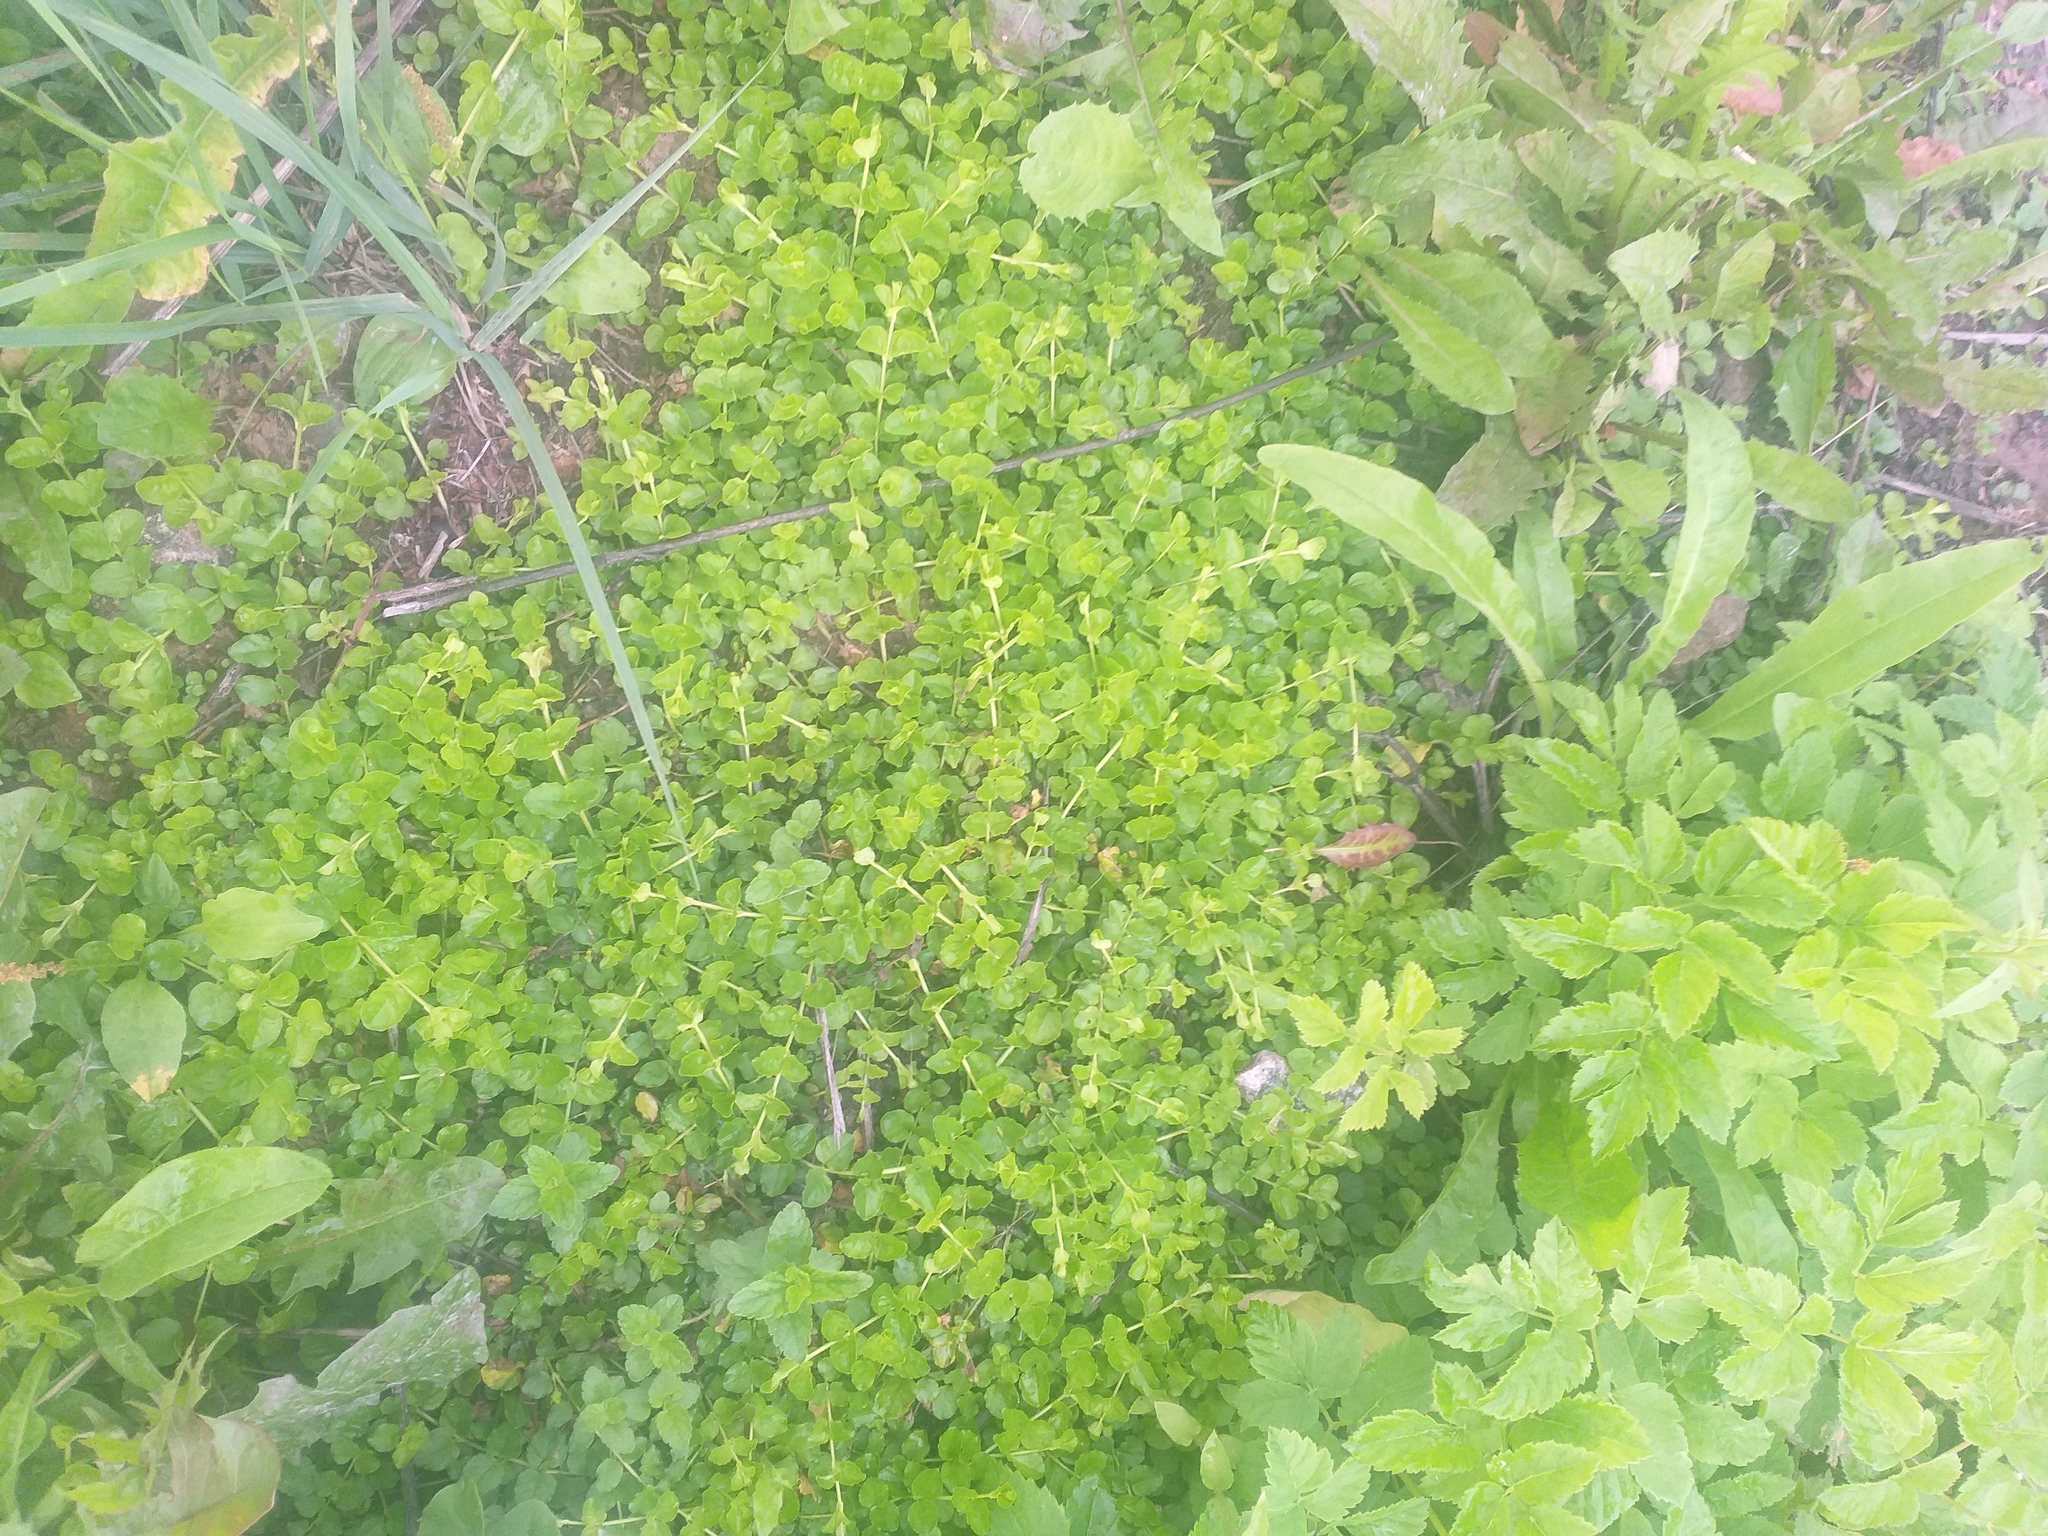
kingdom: Plantae
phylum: Tracheophyta
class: Magnoliopsida
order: Ericales
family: Primulaceae
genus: Lysimachia
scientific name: Lysimachia nummularia
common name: Moneywort
